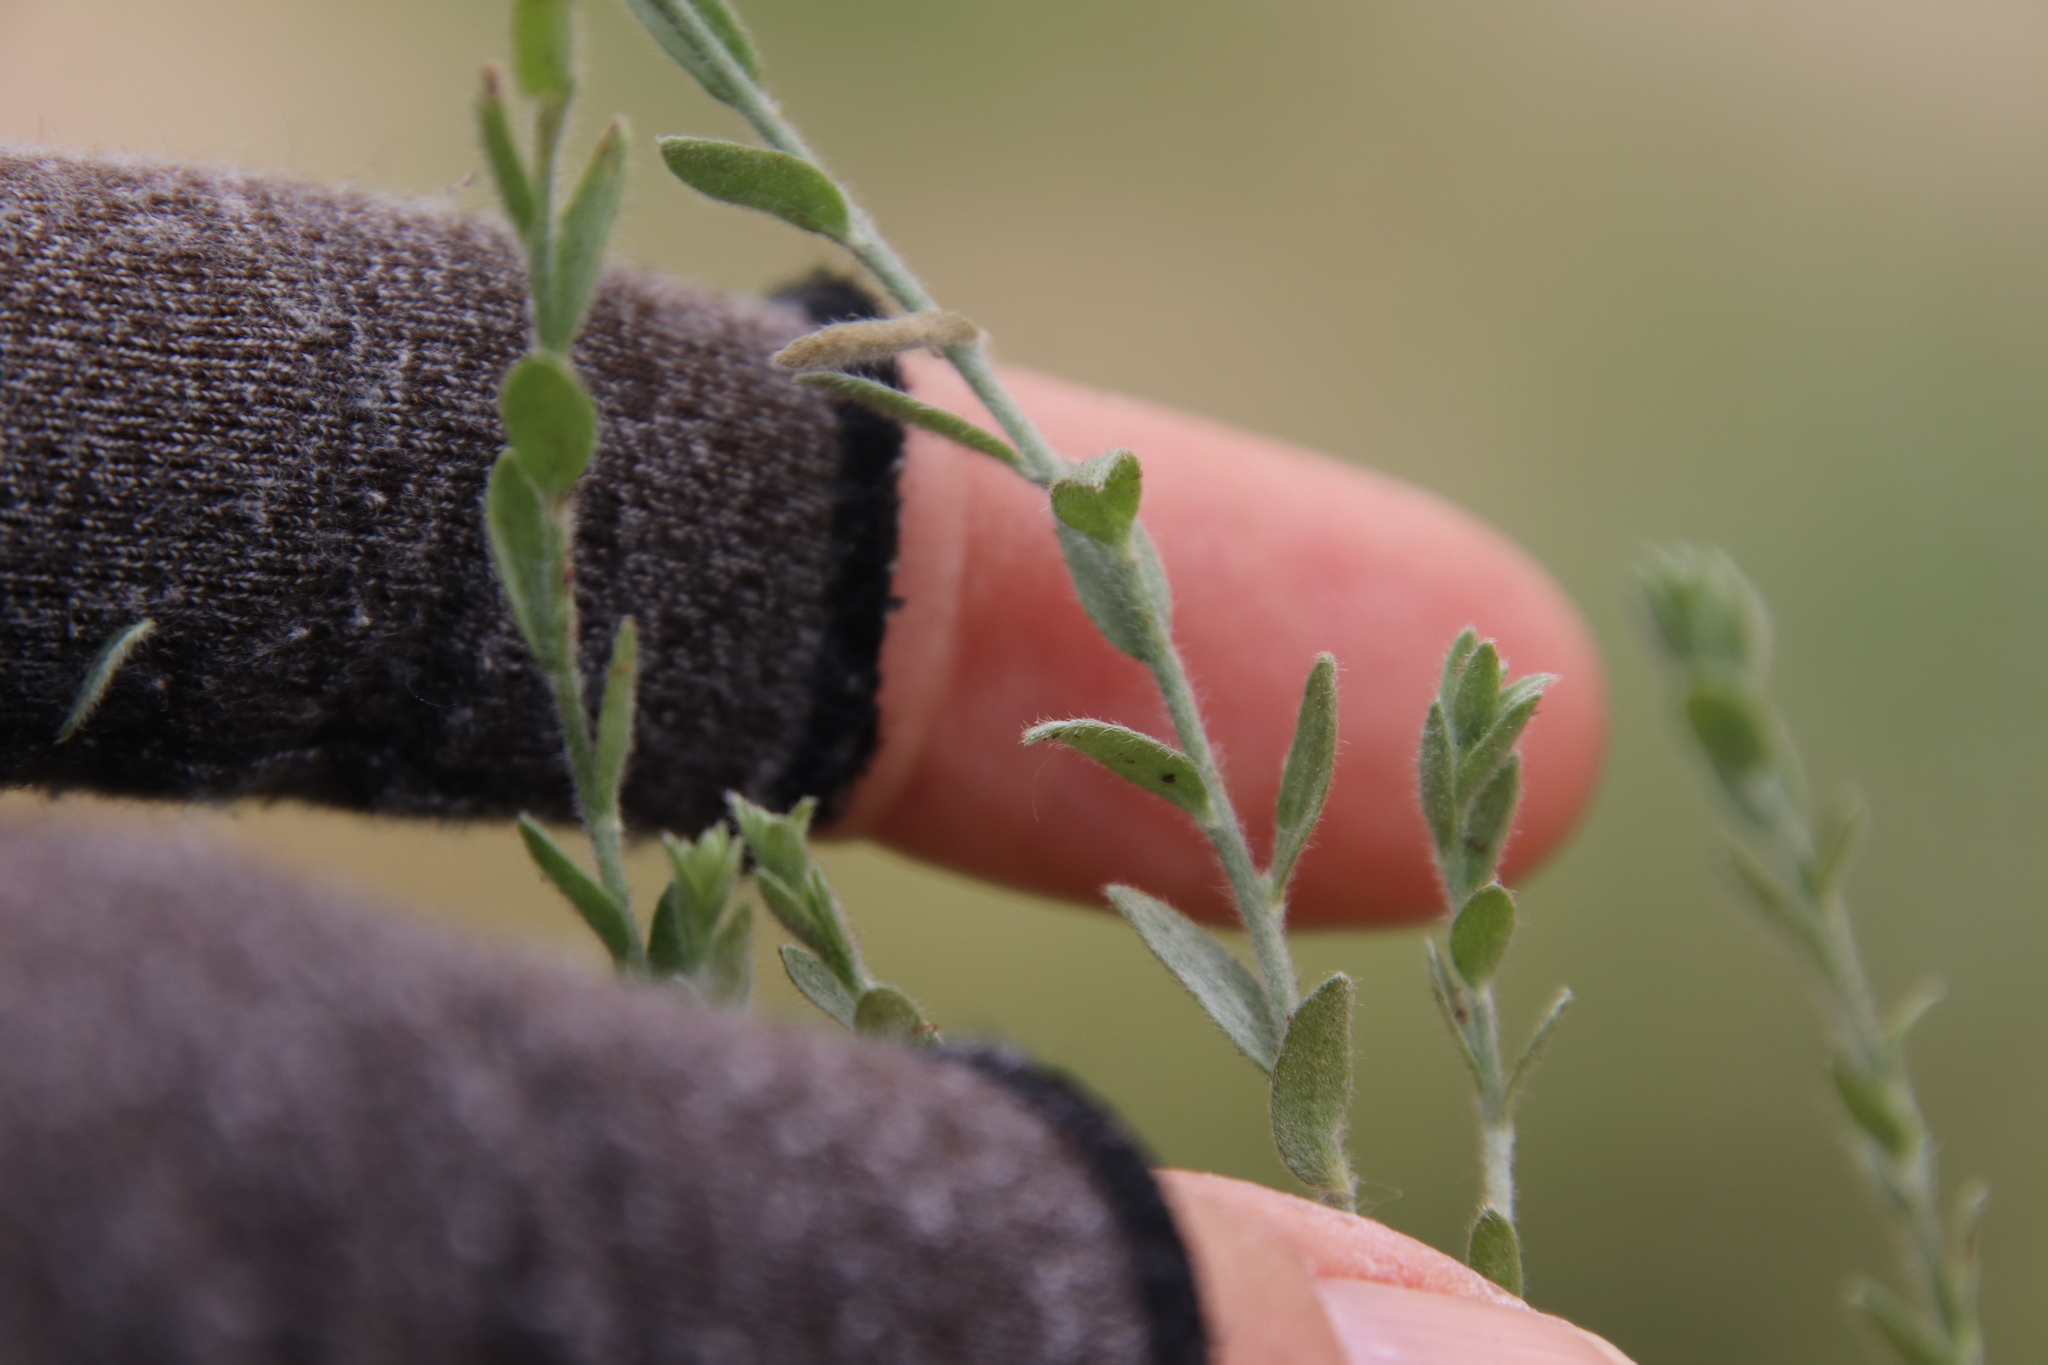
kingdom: Plantae
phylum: Tracheophyta
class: Magnoliopsida
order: Solanales
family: Convolvulaceae
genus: Cressa
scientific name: Cressa truxillensis
